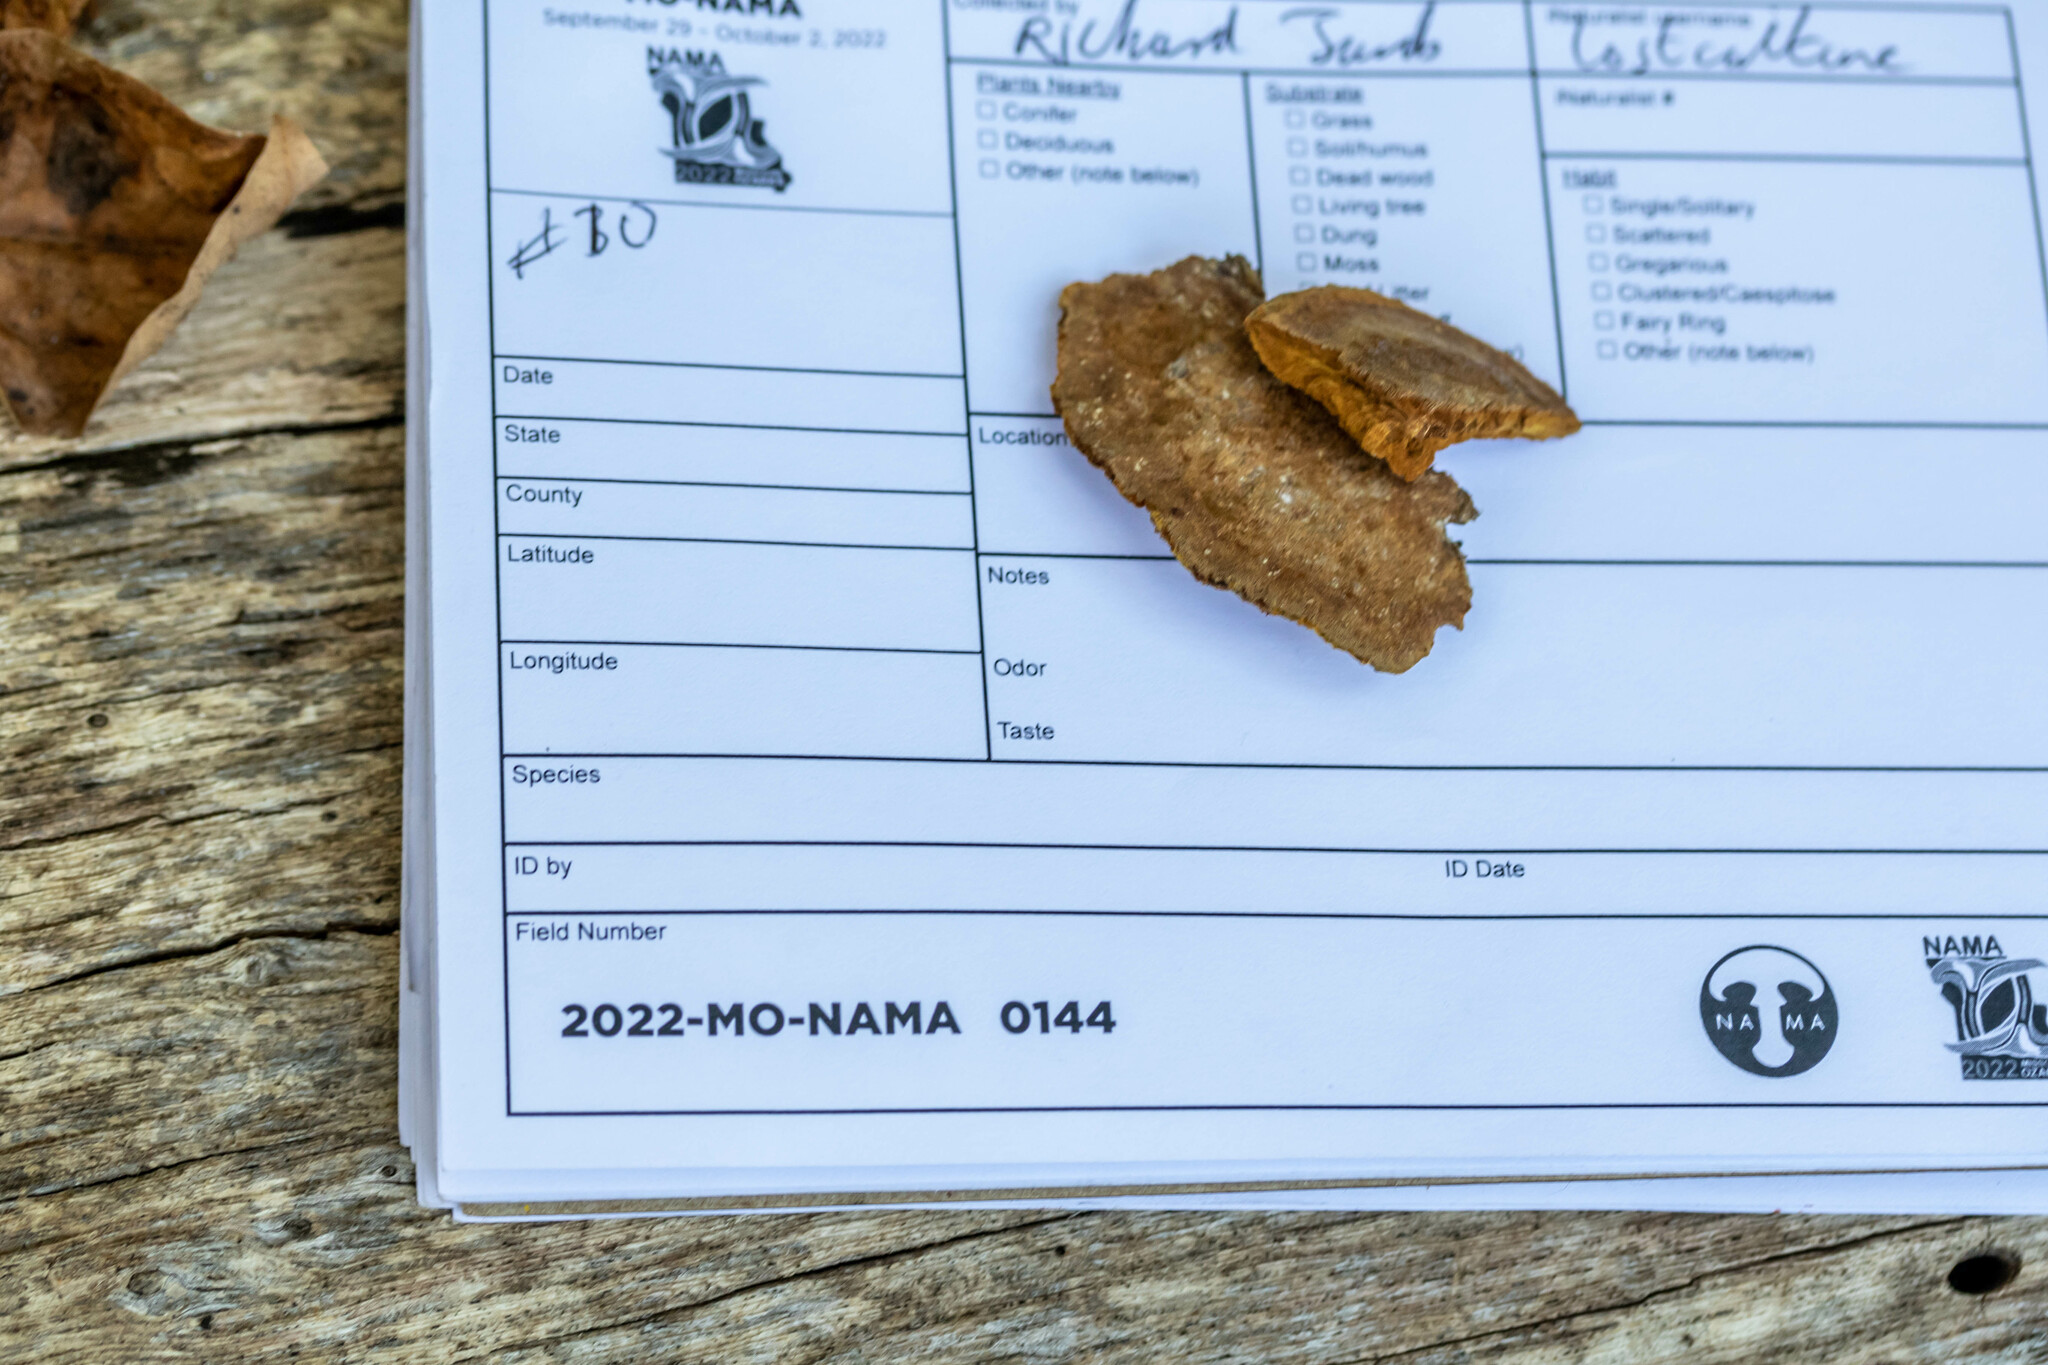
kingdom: Fungi
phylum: Basidiomycota
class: Agaricomycetes
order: Hymenochaetales
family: Hymenochaetaceae
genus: Phellinus
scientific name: Phellinus gilvus
